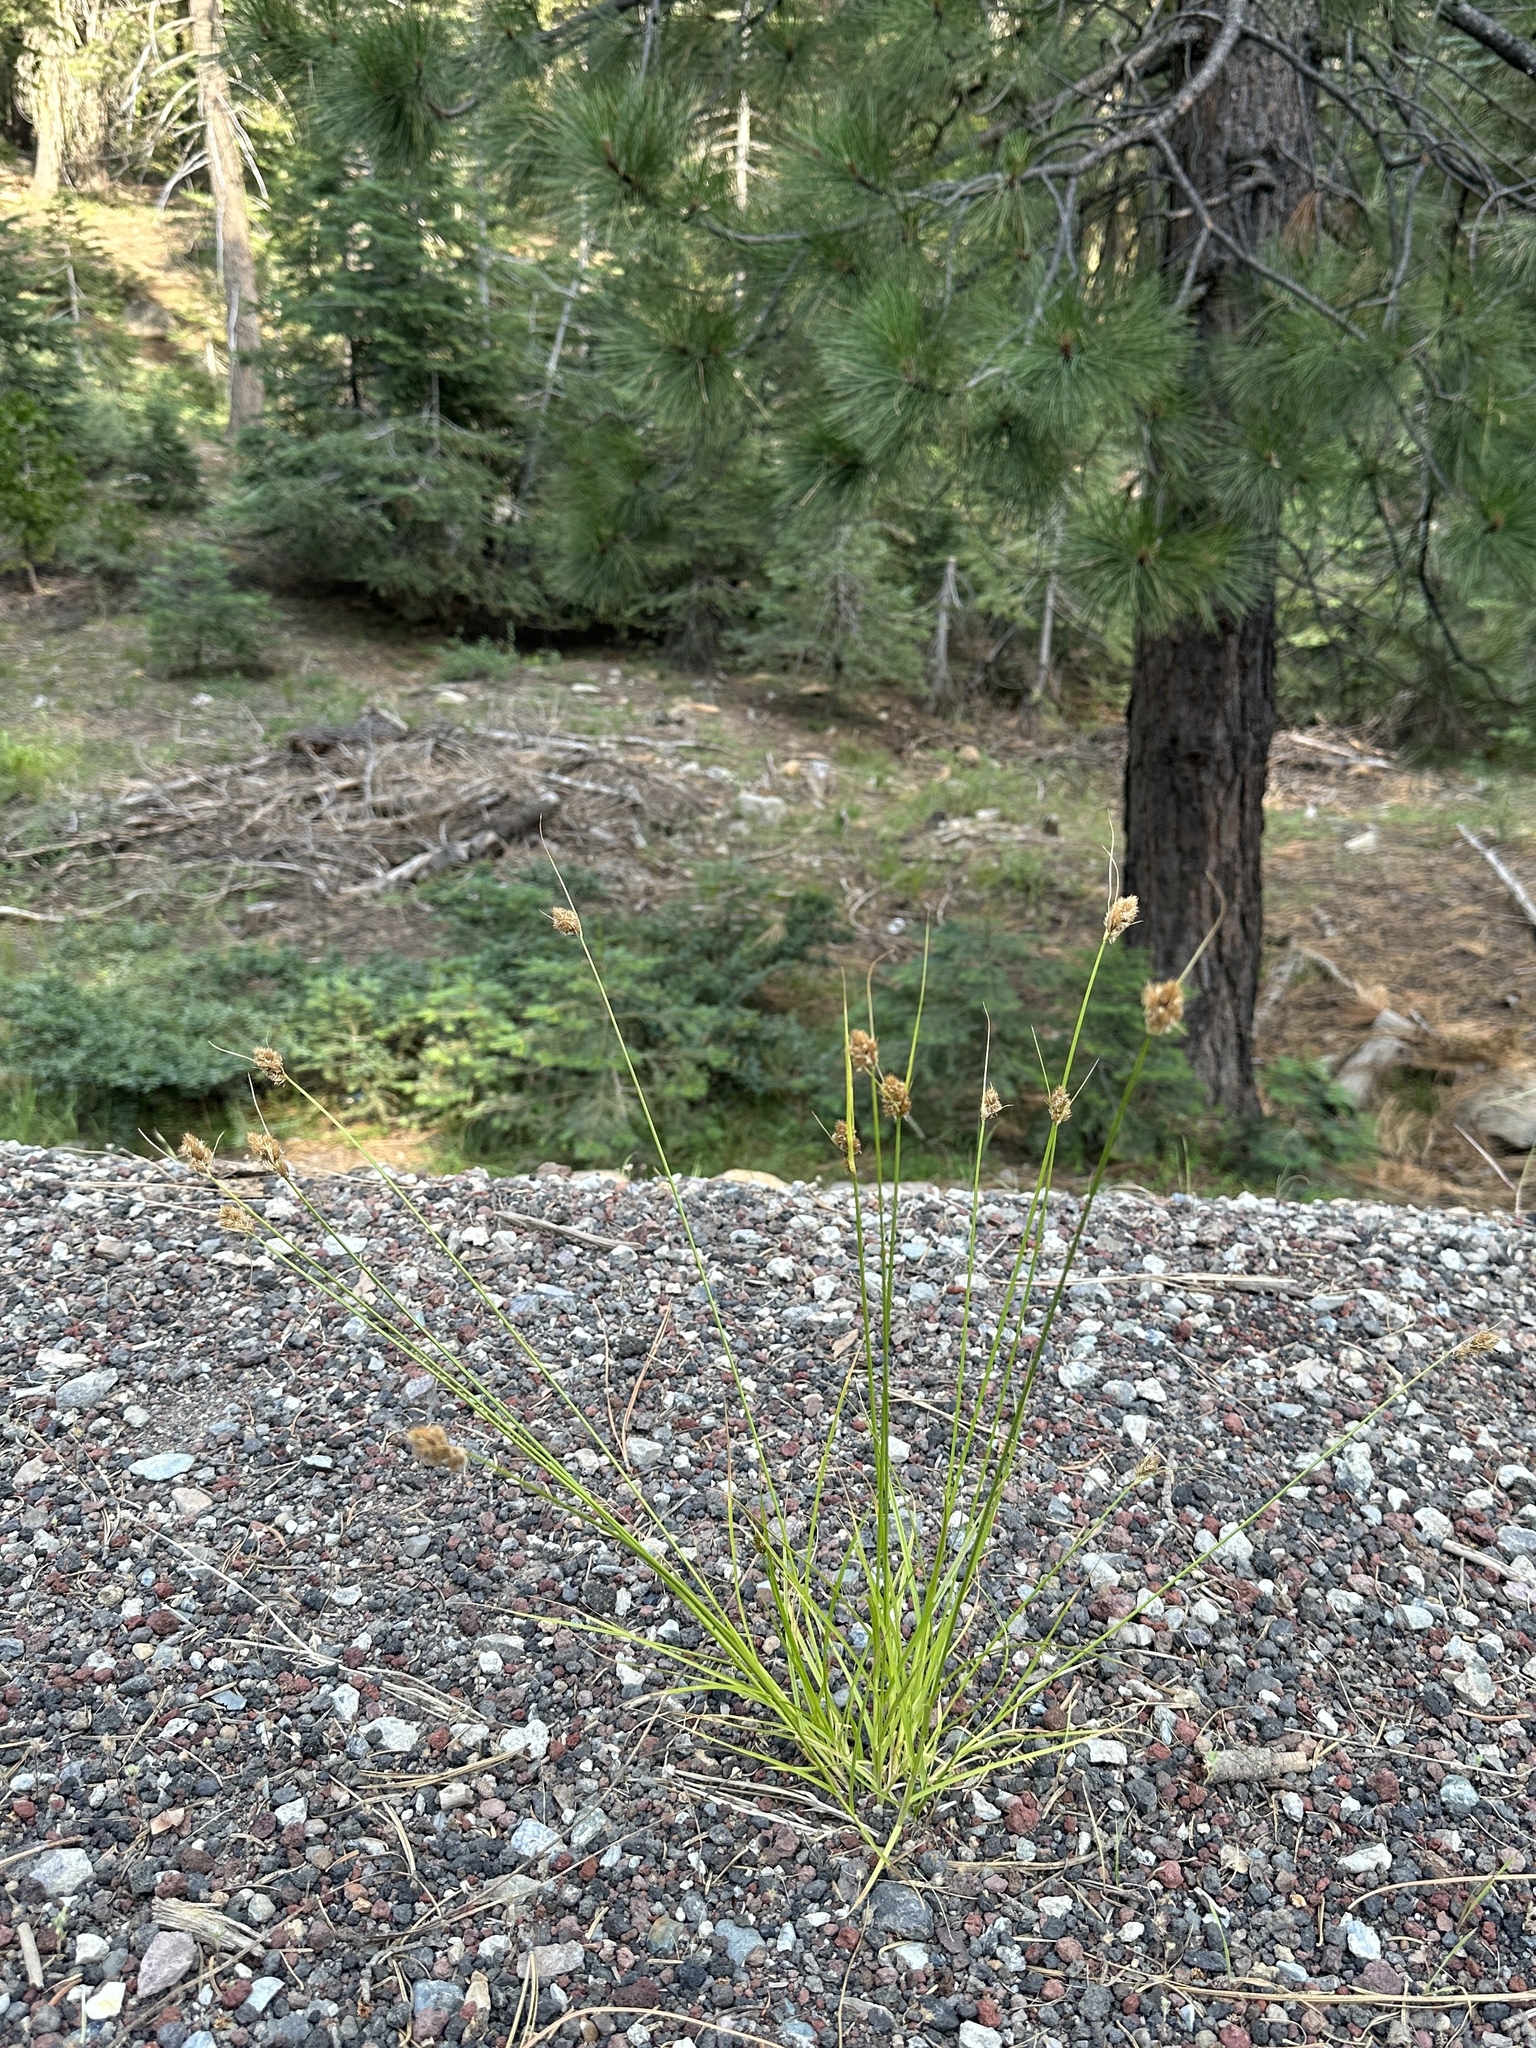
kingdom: Plantae
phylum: Tracheophyta
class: Liliopsida
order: Poales
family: Cyperaceae
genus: Carex
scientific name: Carex athrostachya
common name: Slenderbeak sedge
